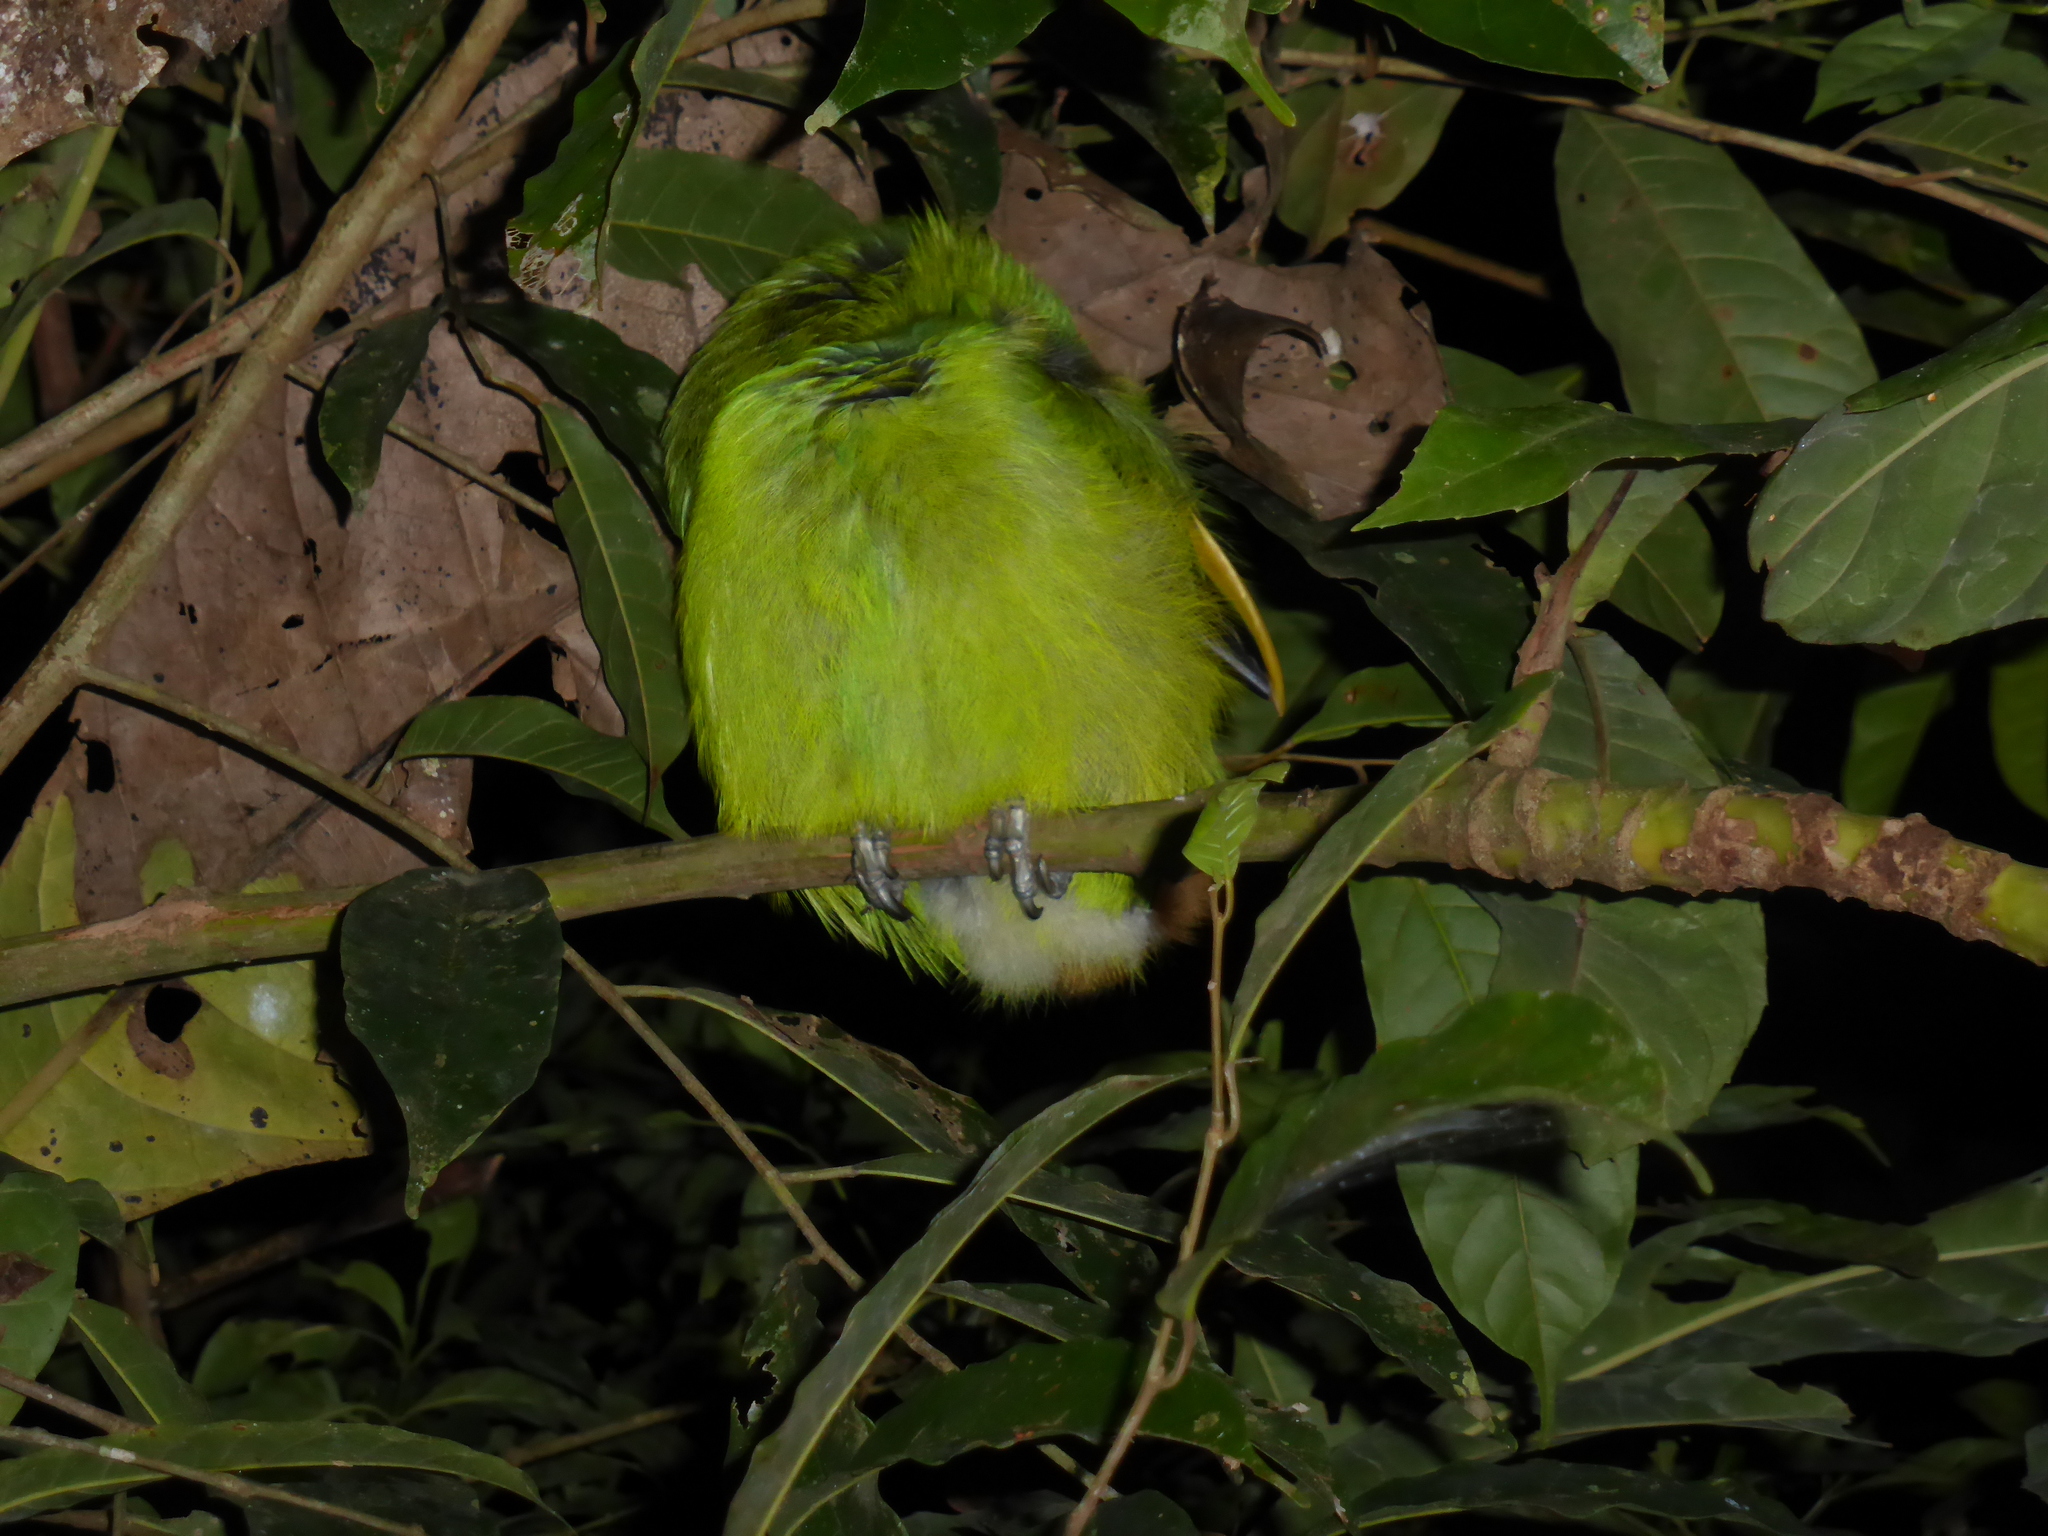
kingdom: Animalia
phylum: Chordata
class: Aves
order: Piciformes
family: Ramphastidae
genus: Aulacorhynchus
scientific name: Aulacorhynchus albivitta
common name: White-throated toucanet
